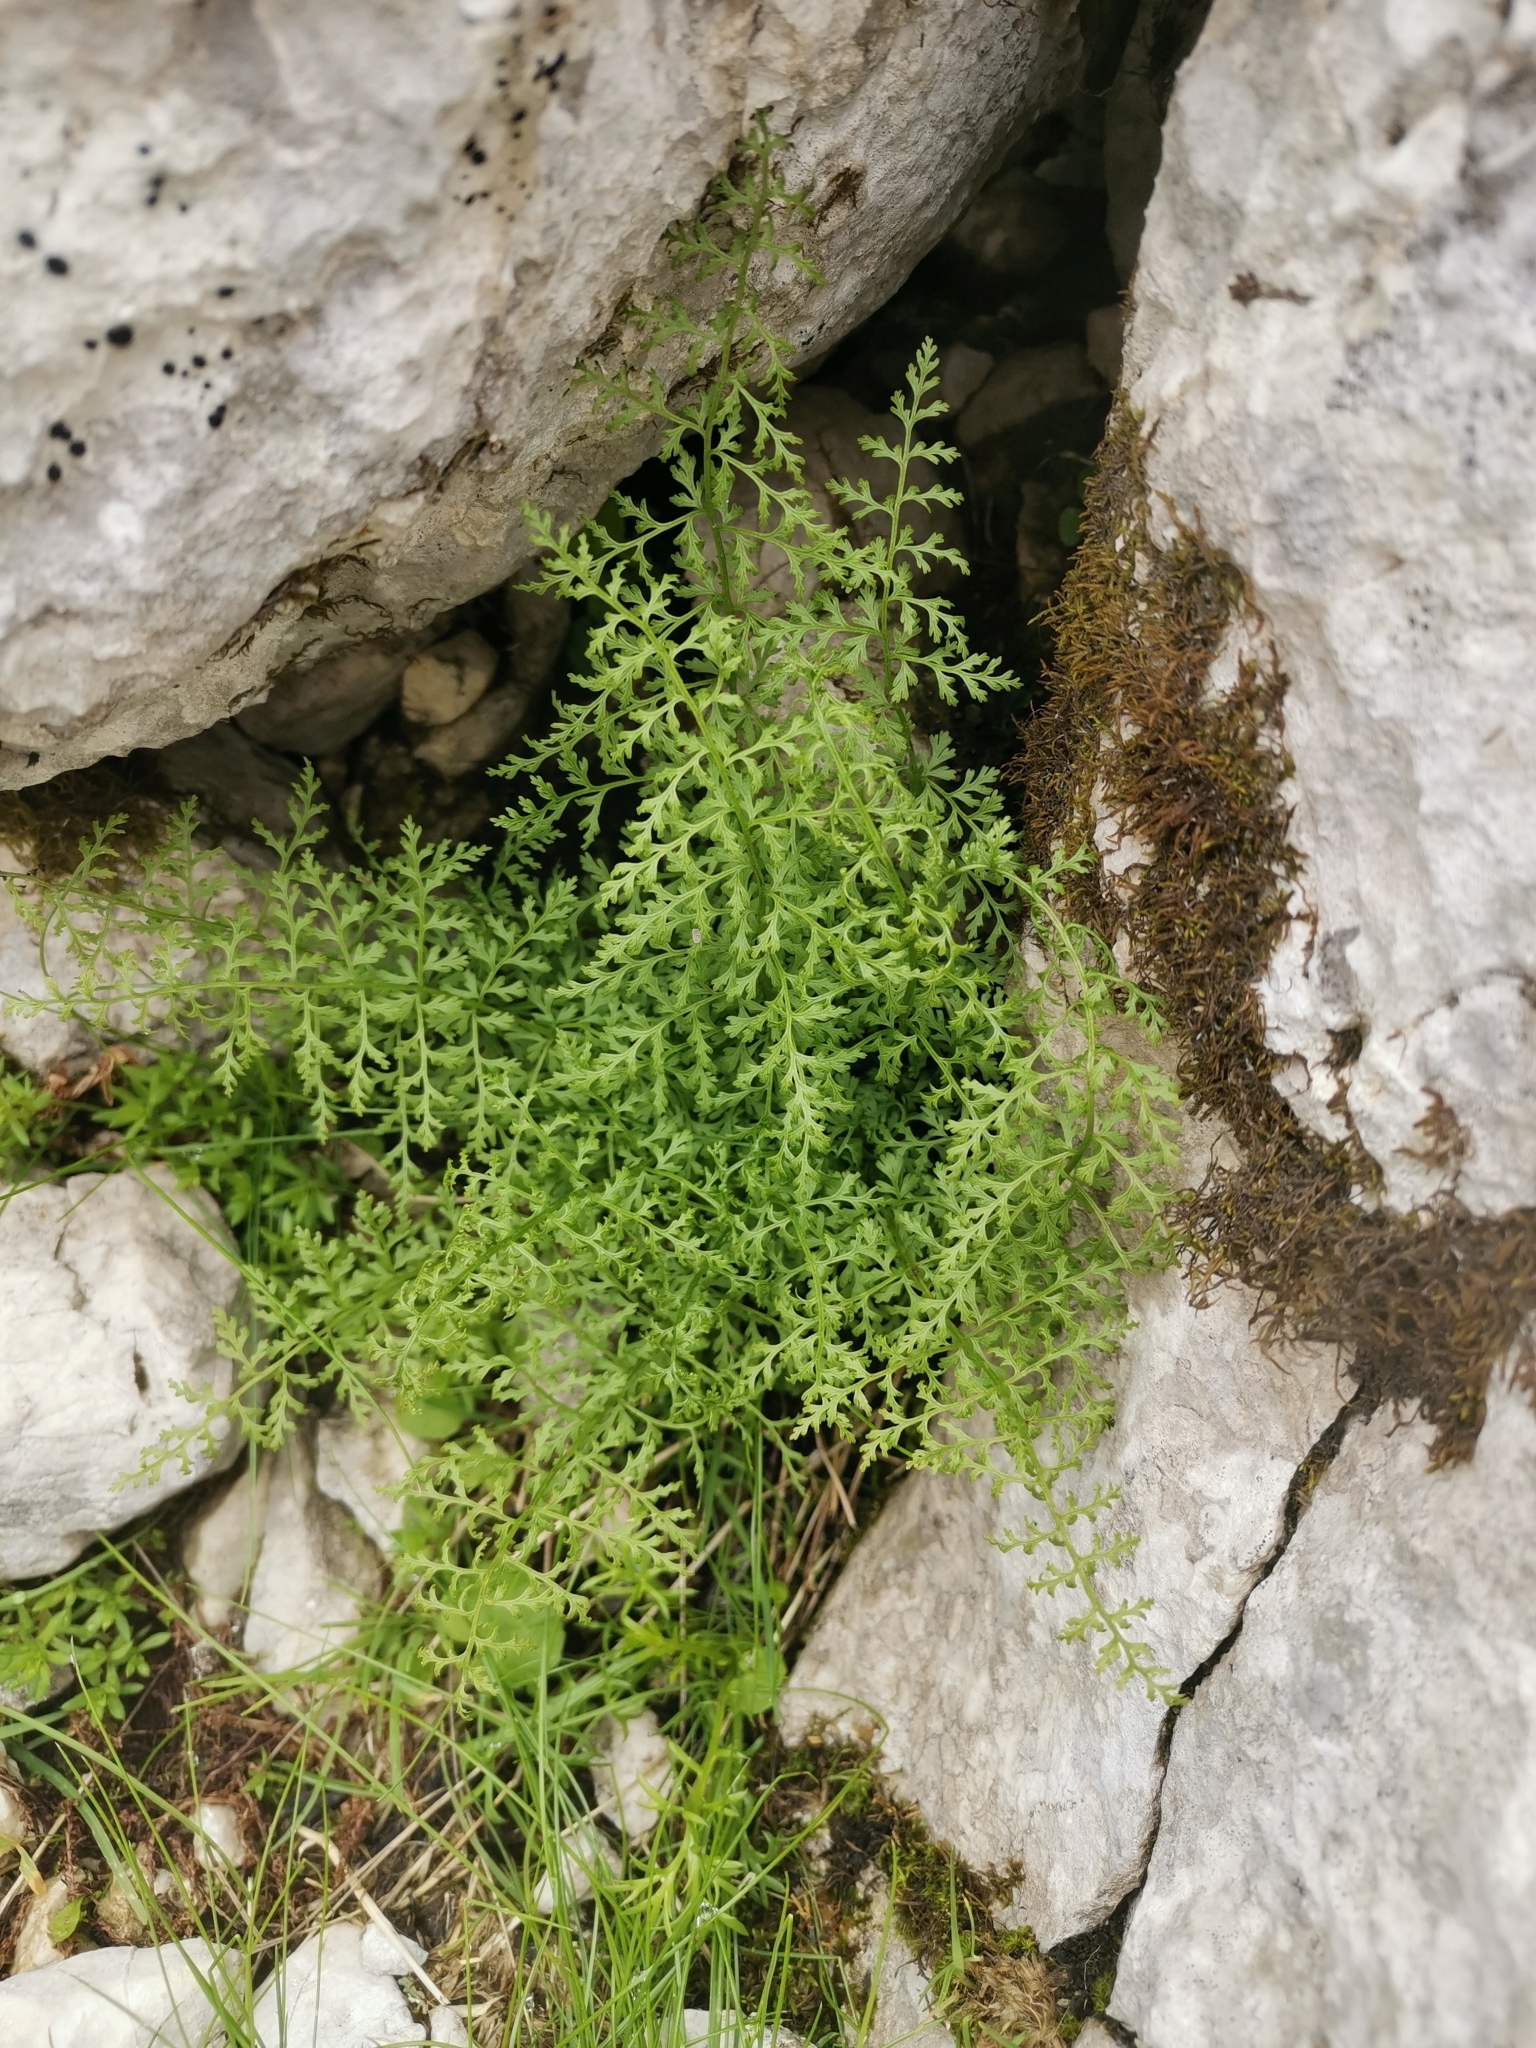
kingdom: Plantae
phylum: Tracheophyta
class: Polypodiopsida
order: Polypodiales
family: Cystopteridaceae
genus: Cystopteris
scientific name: Cystopteris fragilis
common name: Brittle bladder fern
